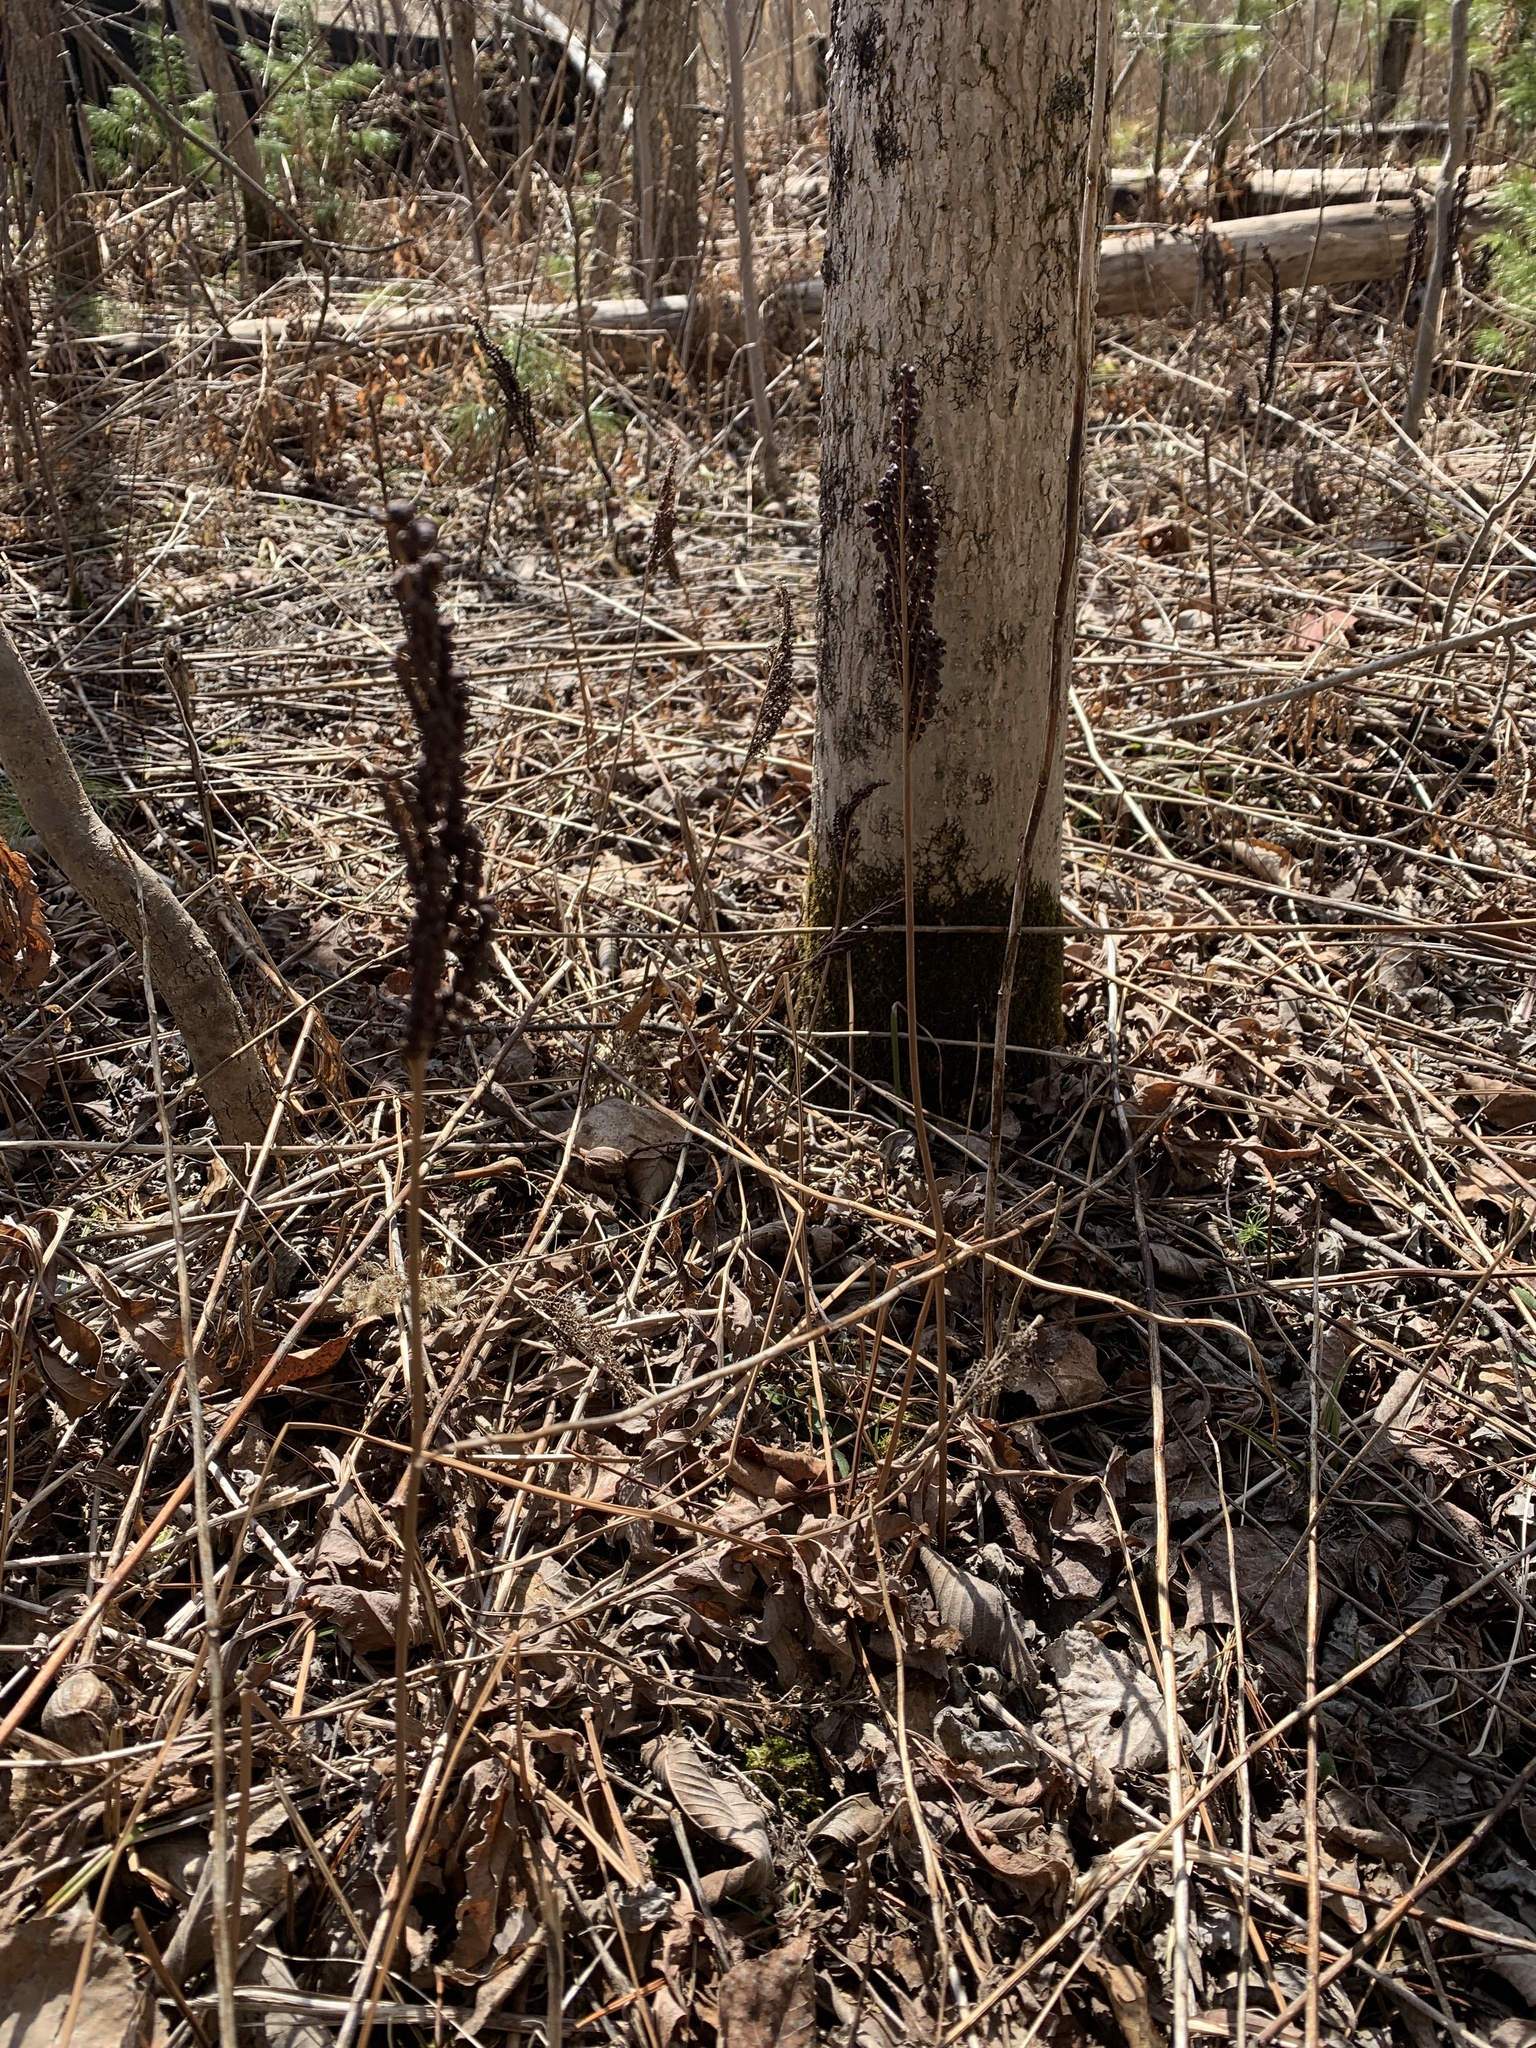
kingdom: Plantae
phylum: Tracheophyta
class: Polypodiopsida
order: Polypodiales
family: Onocleaceae
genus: Onoclea
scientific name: Onoclea sensibilis
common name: Sensitive fern
